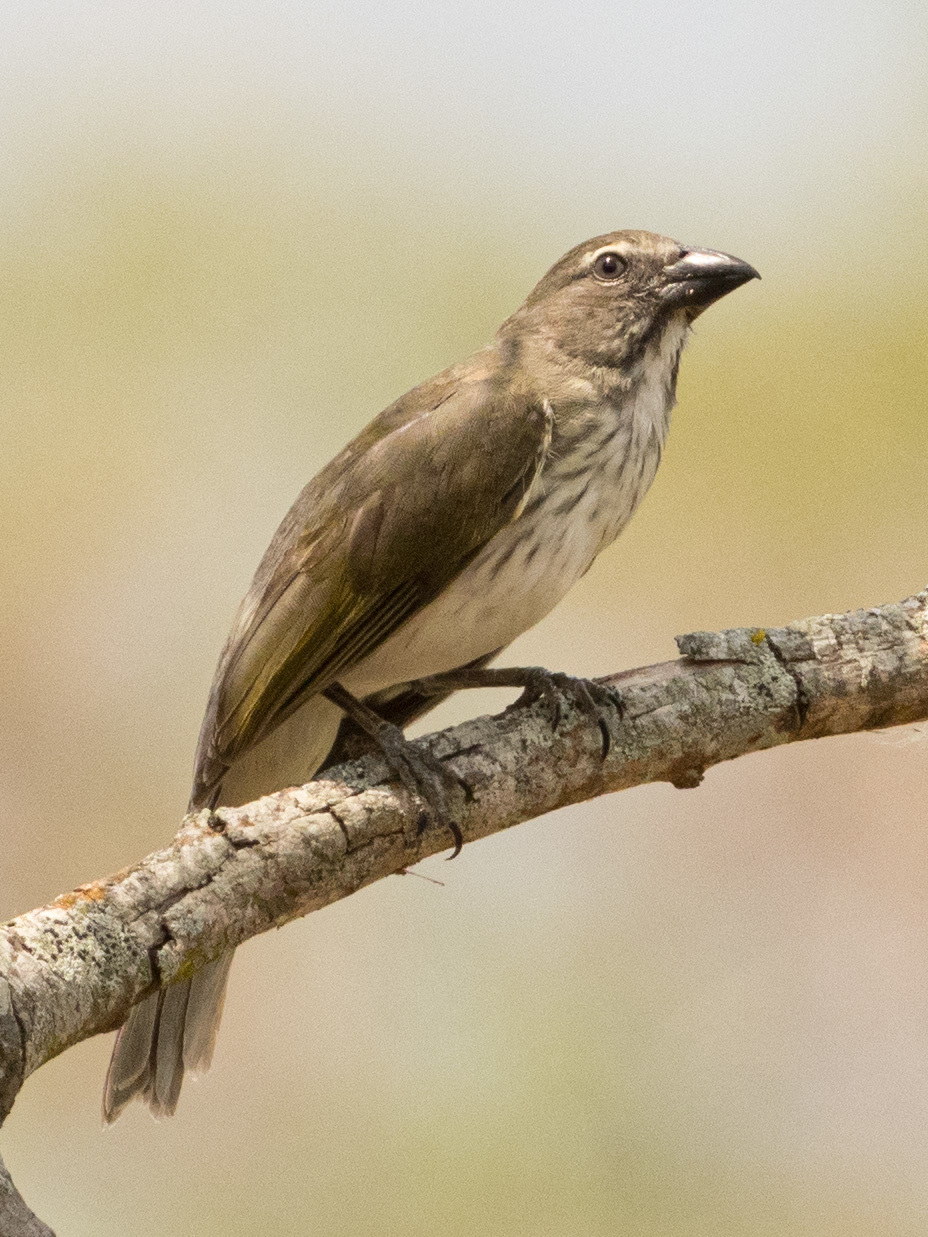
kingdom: Animalia
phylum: Chordata
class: Aves
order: Passeriformes
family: Thraupidae
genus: Saltator
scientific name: Saltator striatipectus
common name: Streaked saltator
